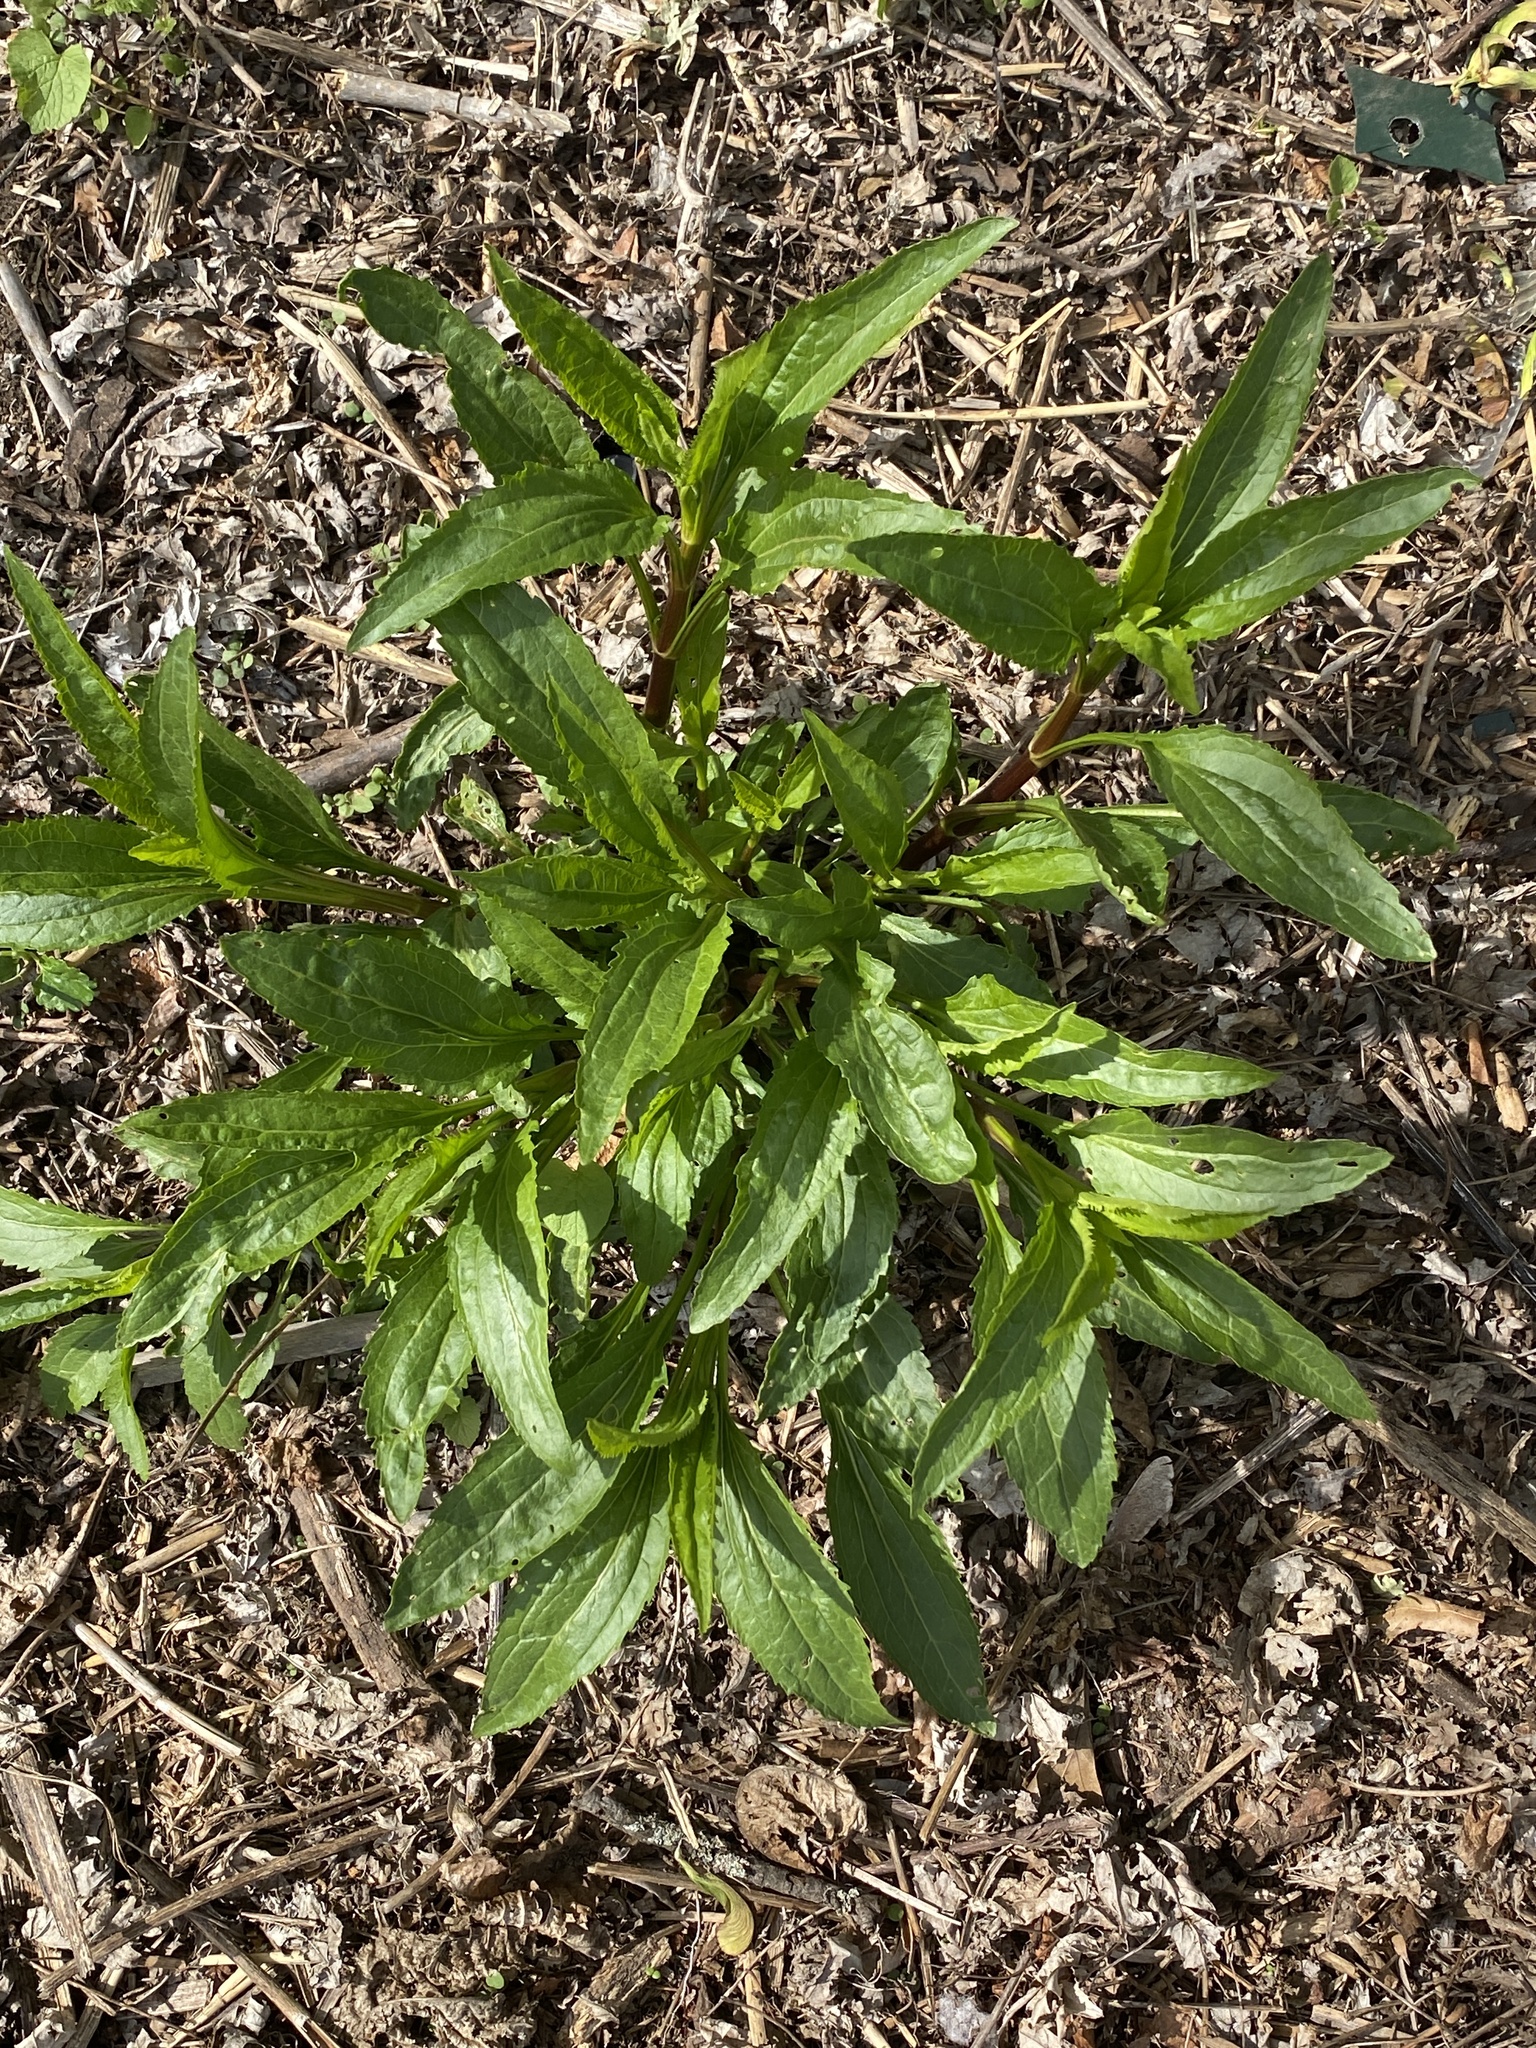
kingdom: Plantae
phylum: Tracheophyta
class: Magnoliopsida
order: Asterales
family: Asteraceae
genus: Eupatorium
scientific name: Eupatorium serotinum
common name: Late boneset
